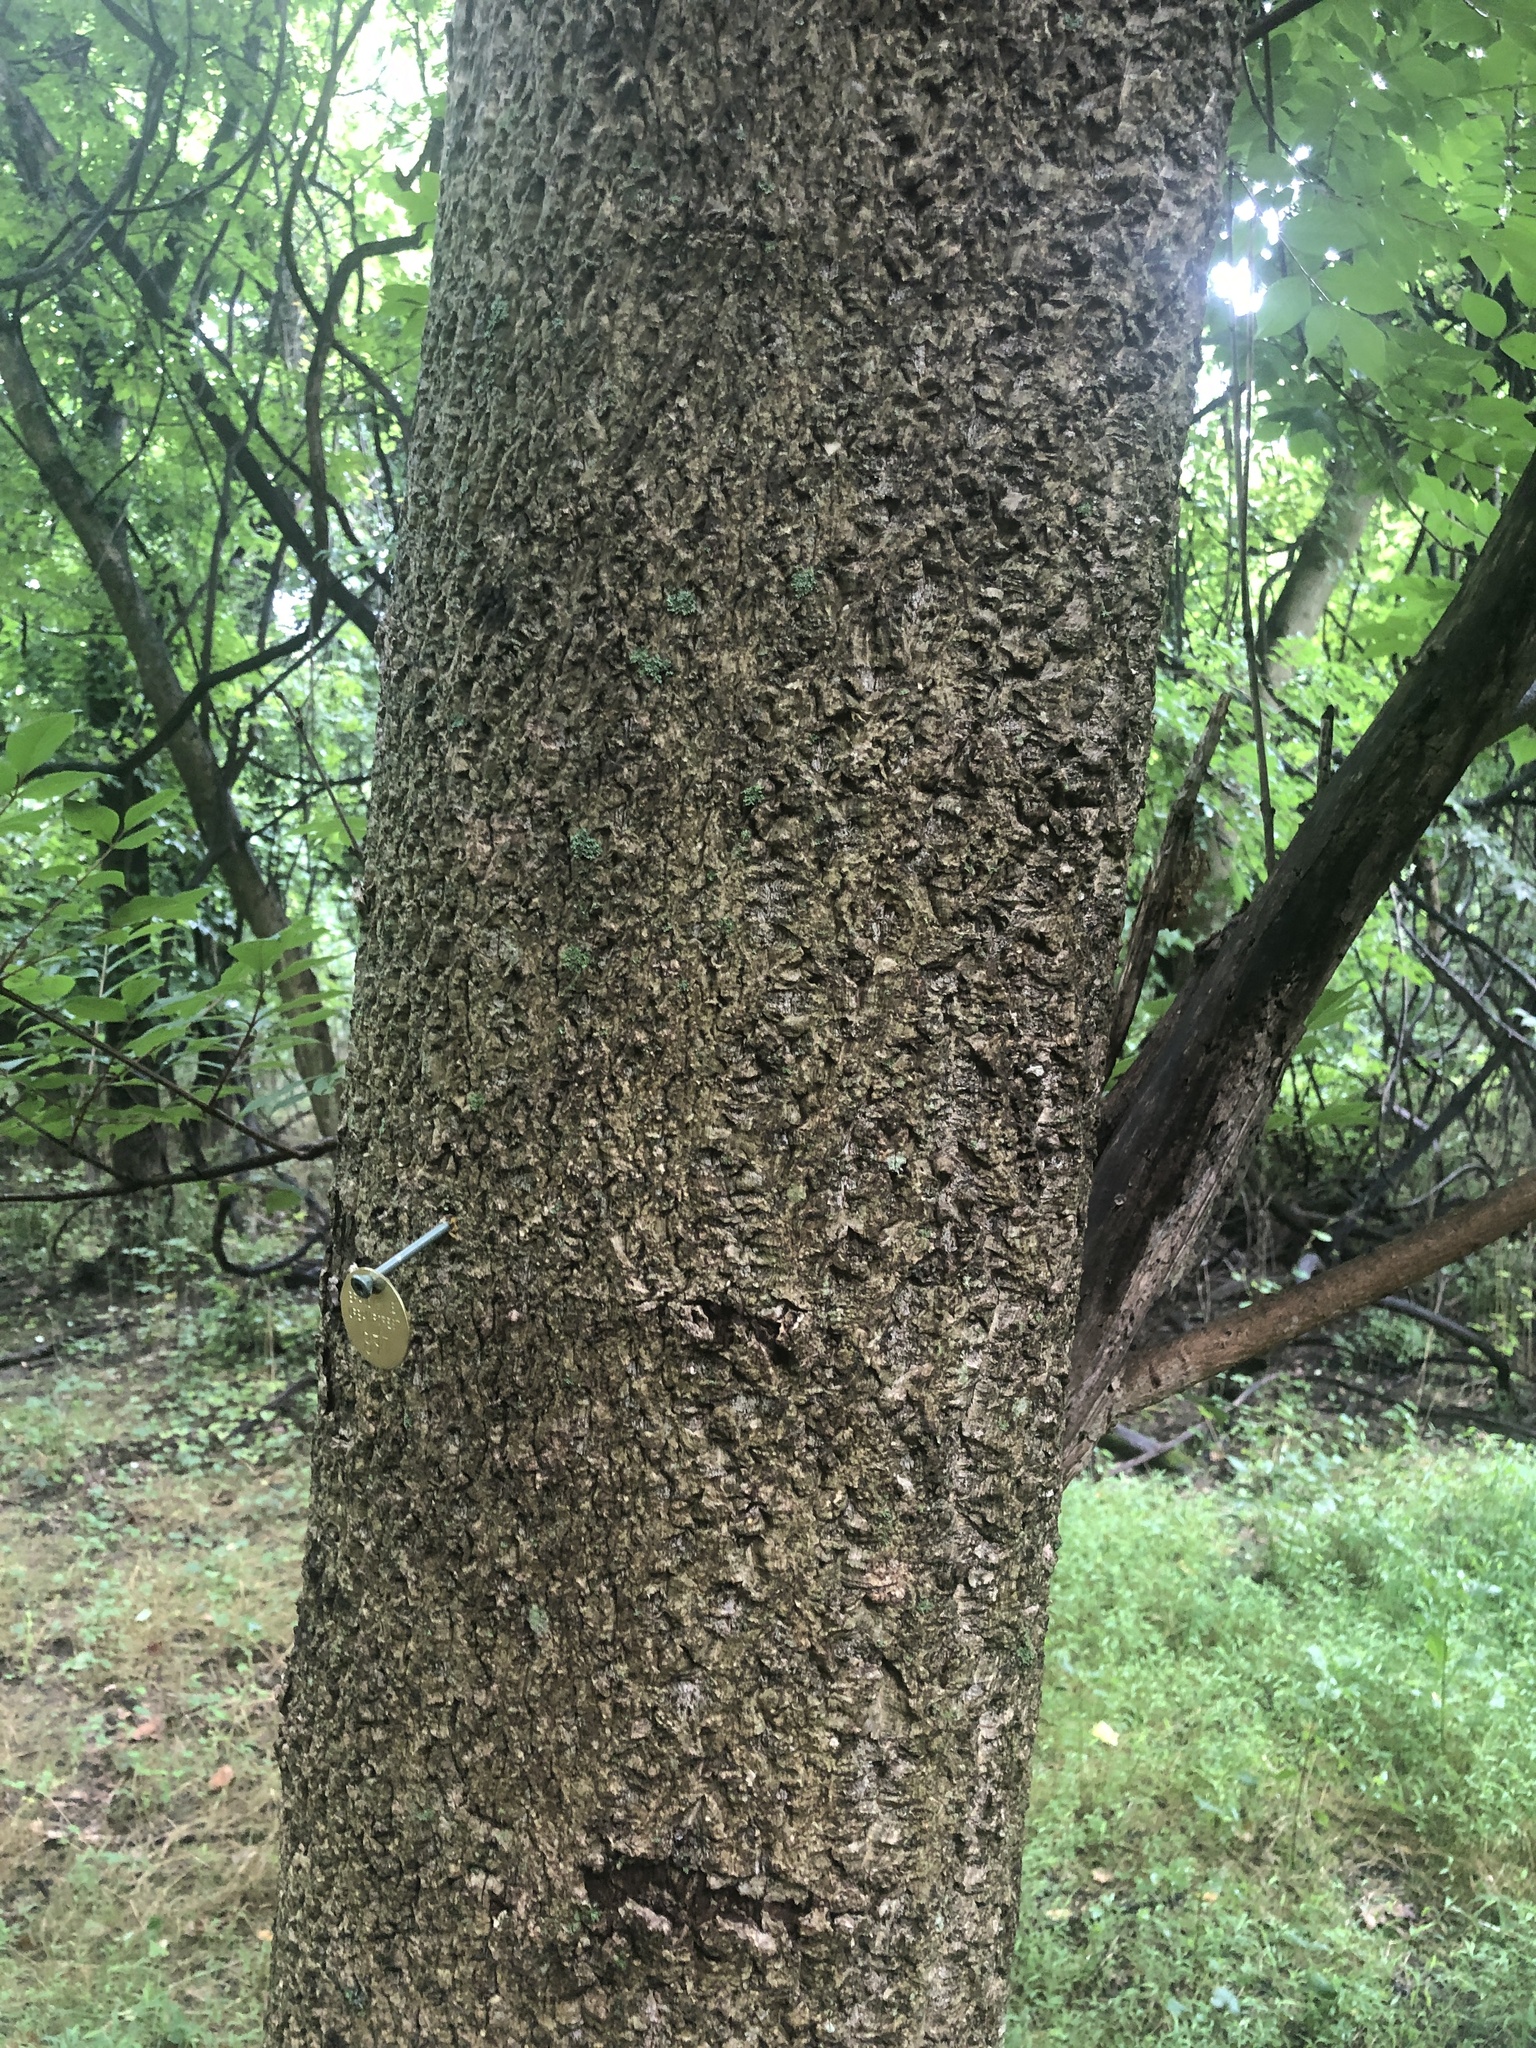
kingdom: Plantae
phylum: Tracheophyta
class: Magnoliopsida
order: Sapindales
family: Rutaceae
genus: Phellodendron
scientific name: Phellodendron amurense
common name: Amur corktree
